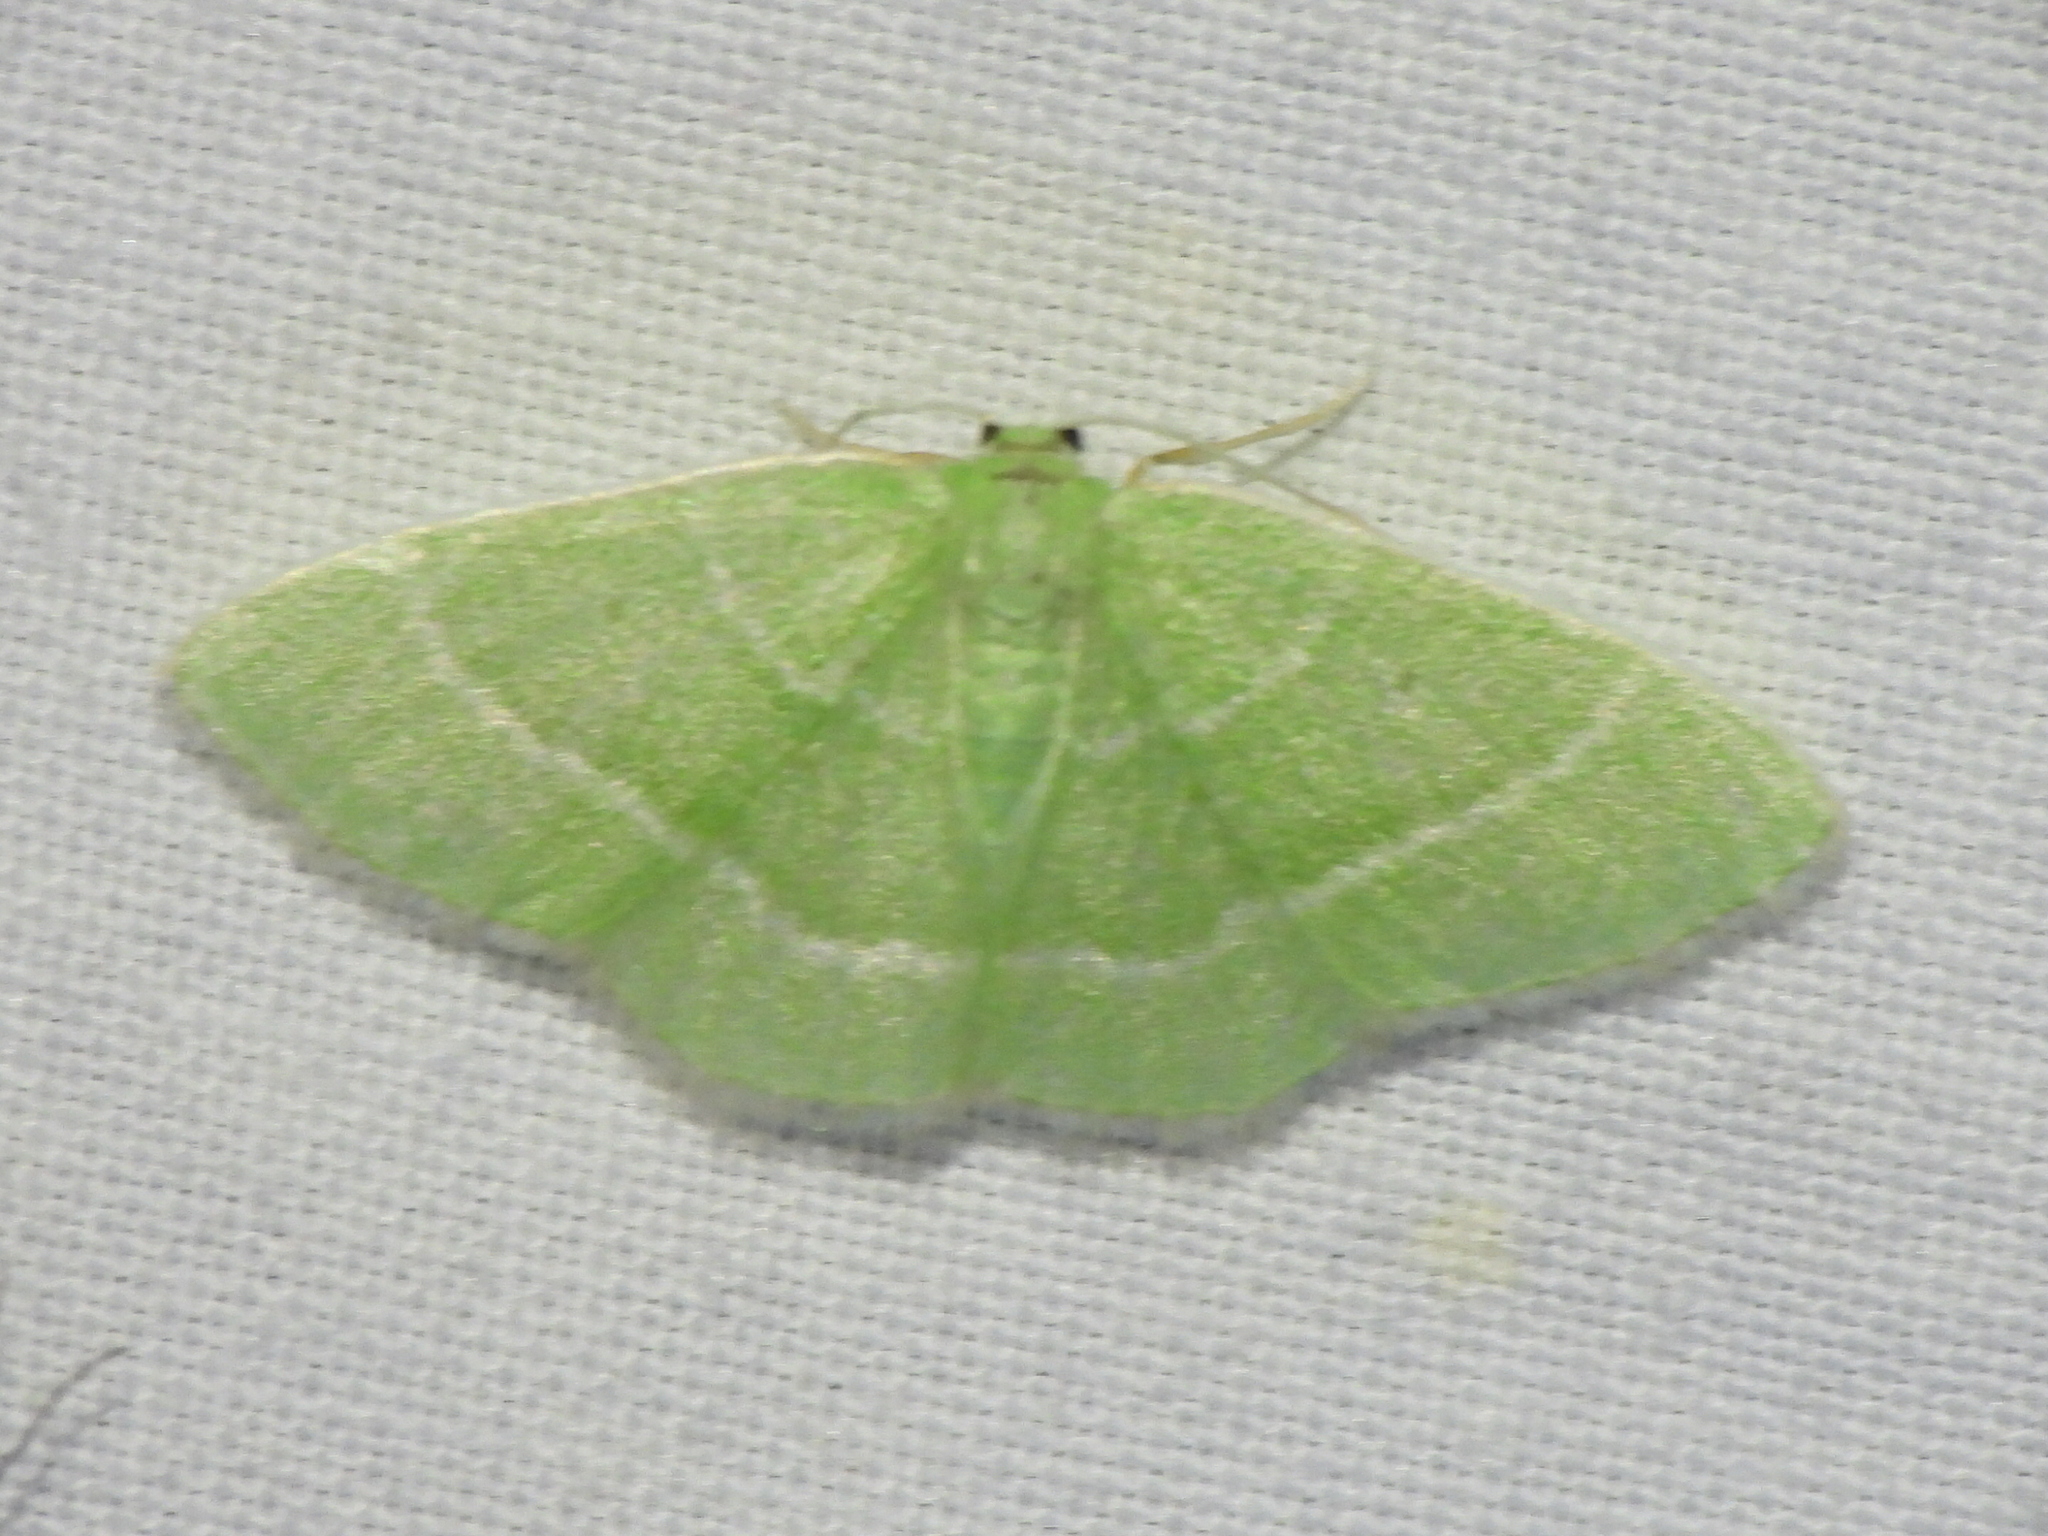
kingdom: Animalia
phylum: Arthropoda
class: Insecta
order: Lepidoptera
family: Geometridae
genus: Nemoria
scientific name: Nemoria elfa
